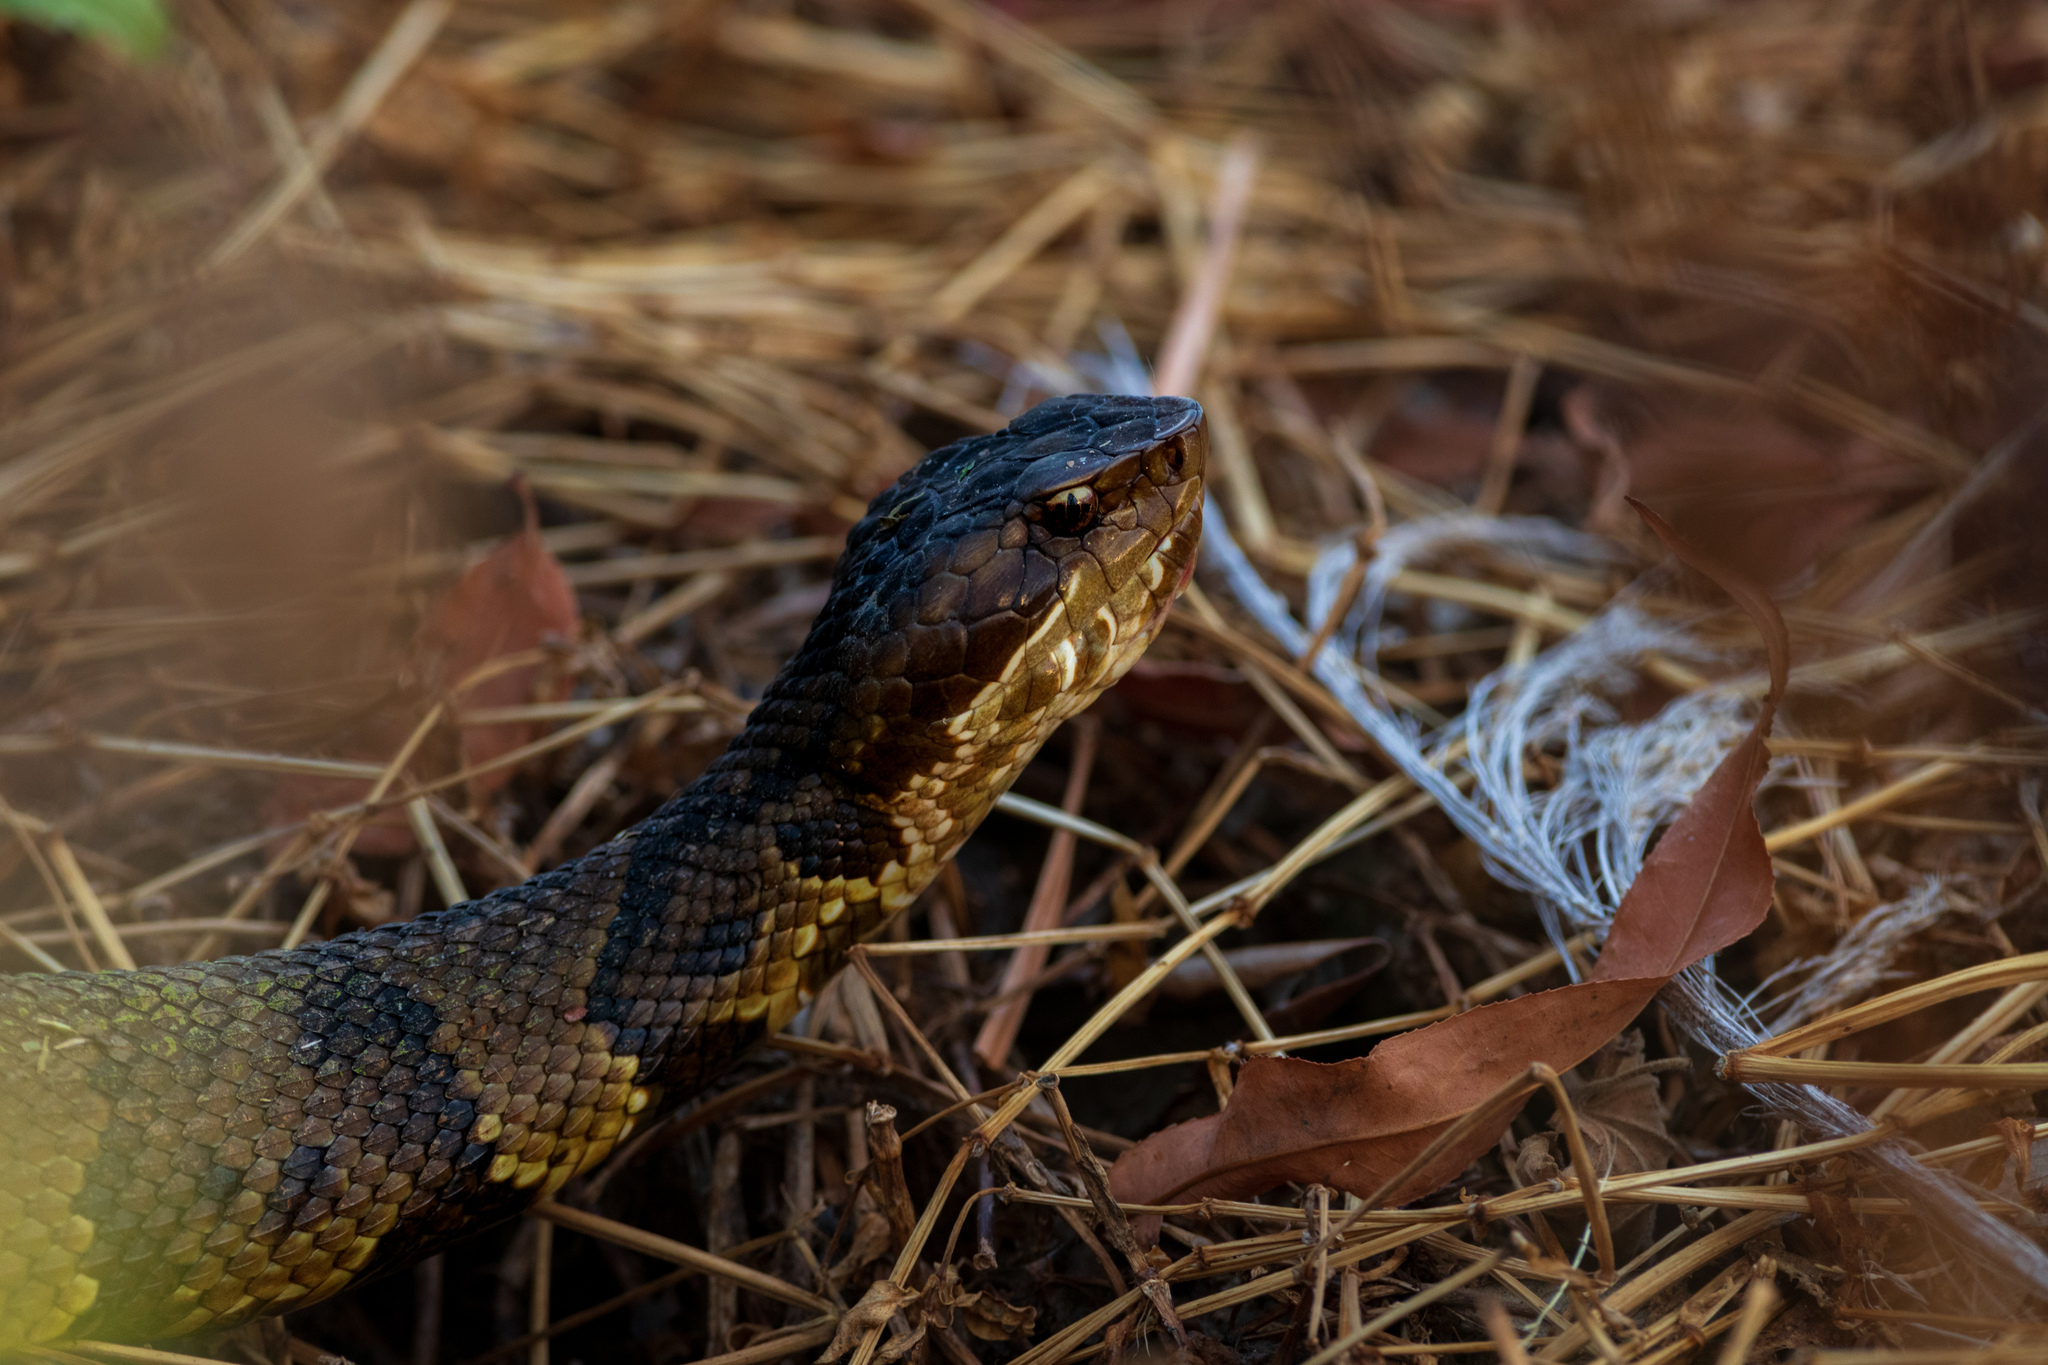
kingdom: Animalia
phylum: Chordata
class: Squamata
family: Viperidae
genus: Agkistrodon
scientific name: Agkistrodon piscivorus
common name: Cottonmouth
